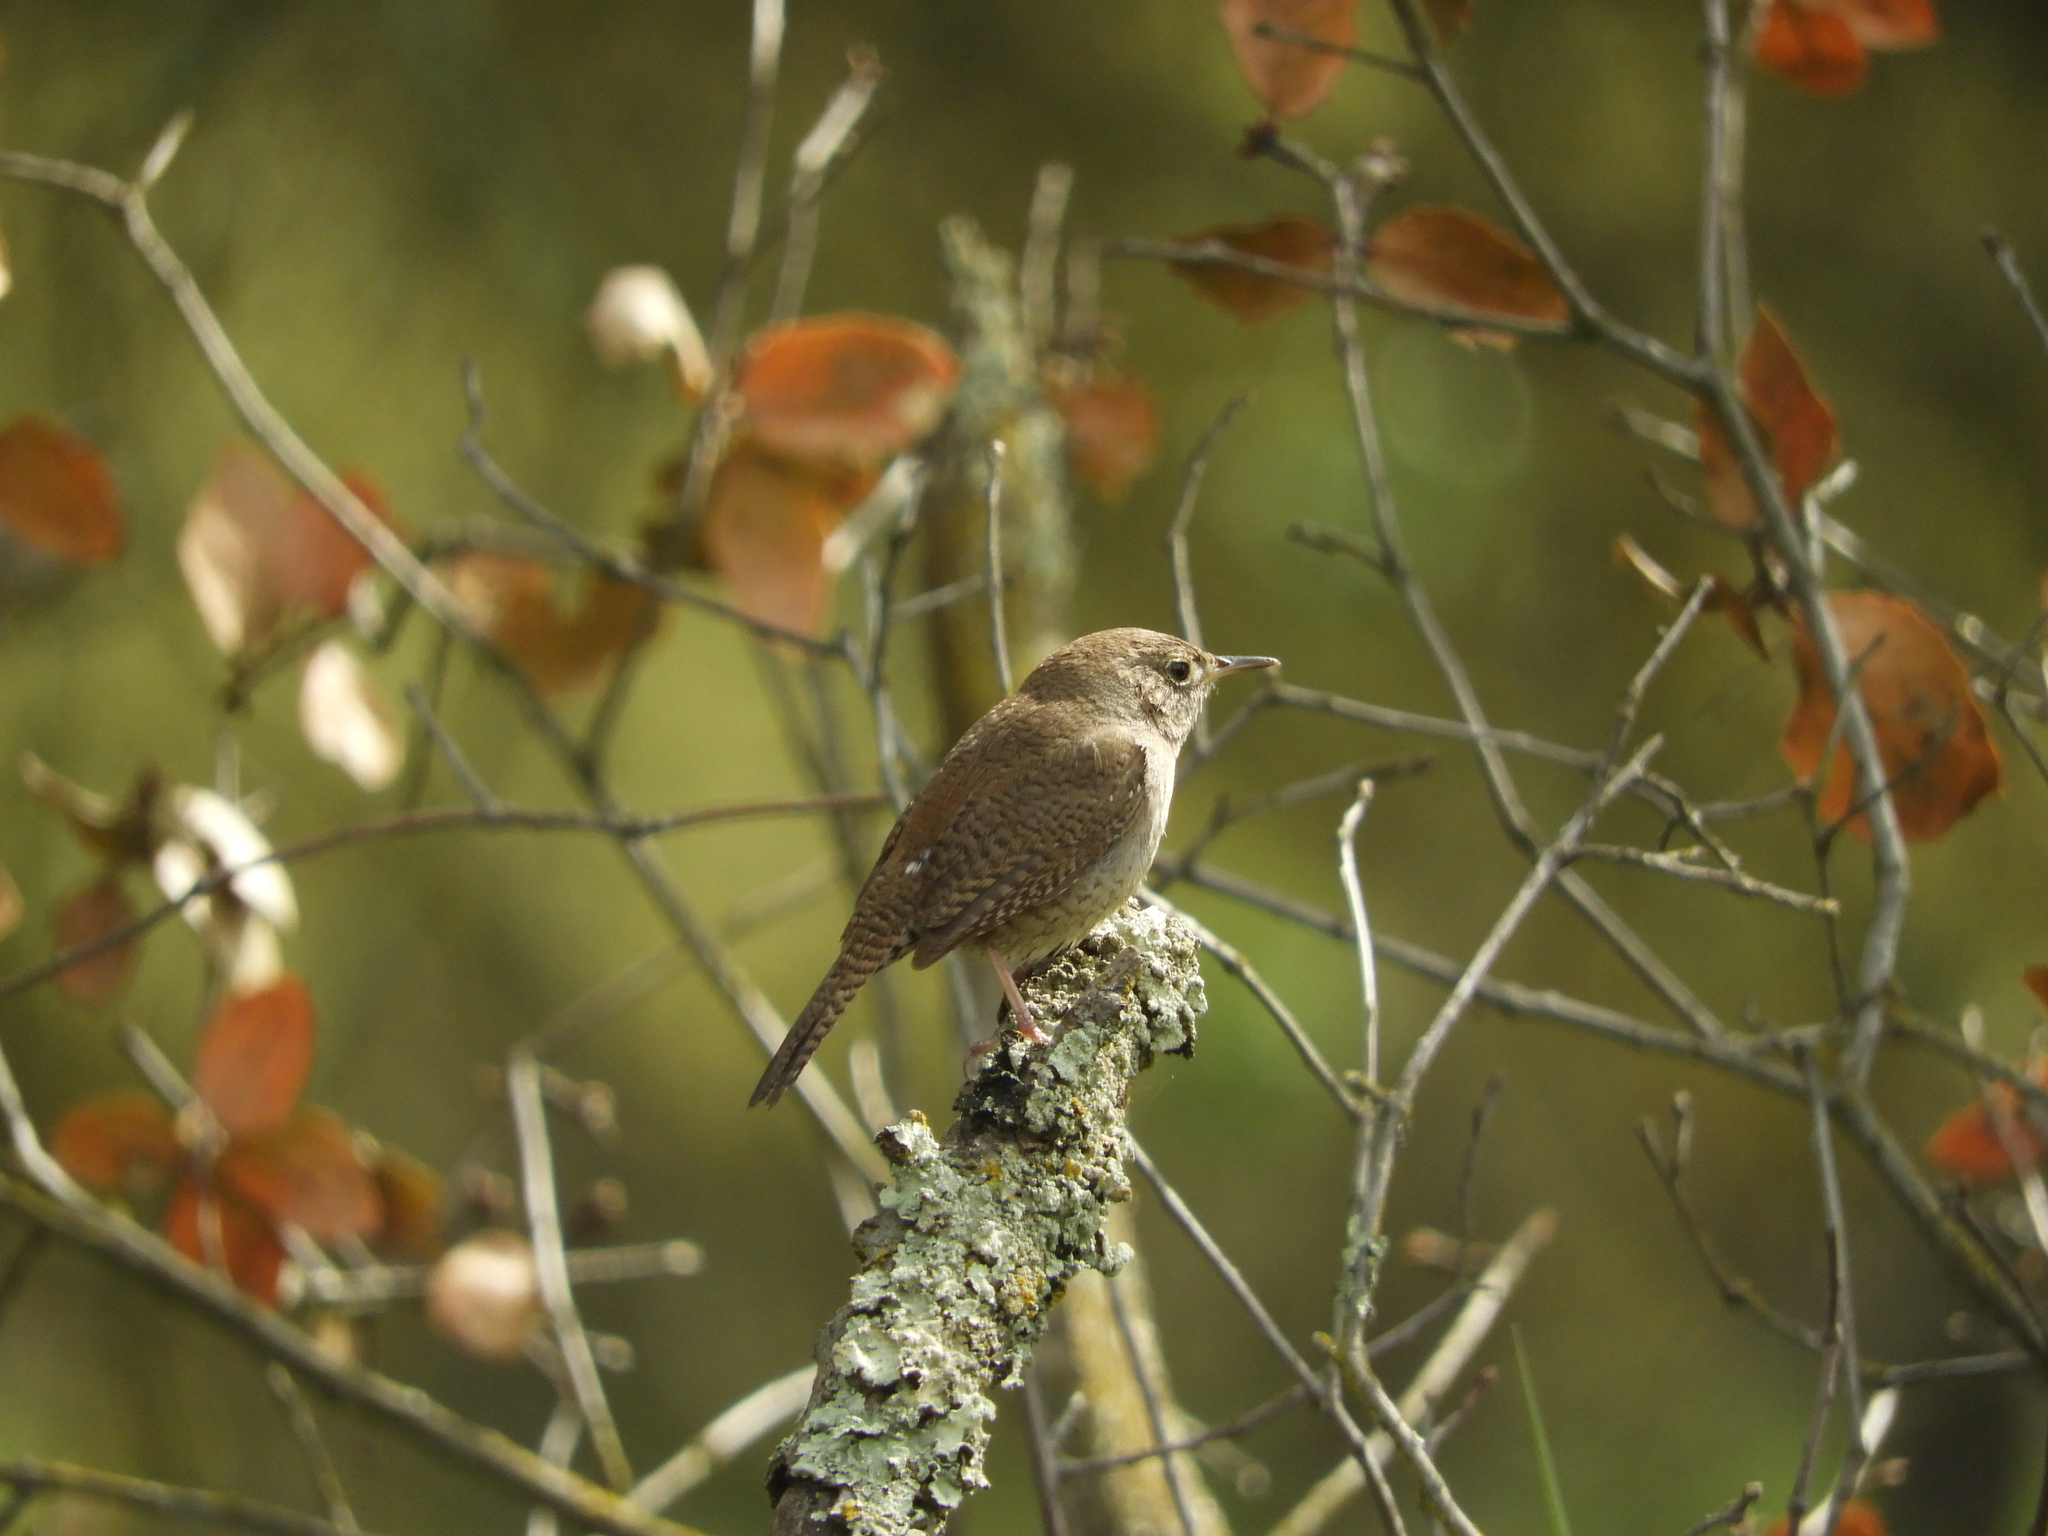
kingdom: Animalia
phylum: Chordata
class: Aves
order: Passeriformes
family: Troglodytidae
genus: Troglodytes
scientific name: Troglodytes aedon
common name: House wren
